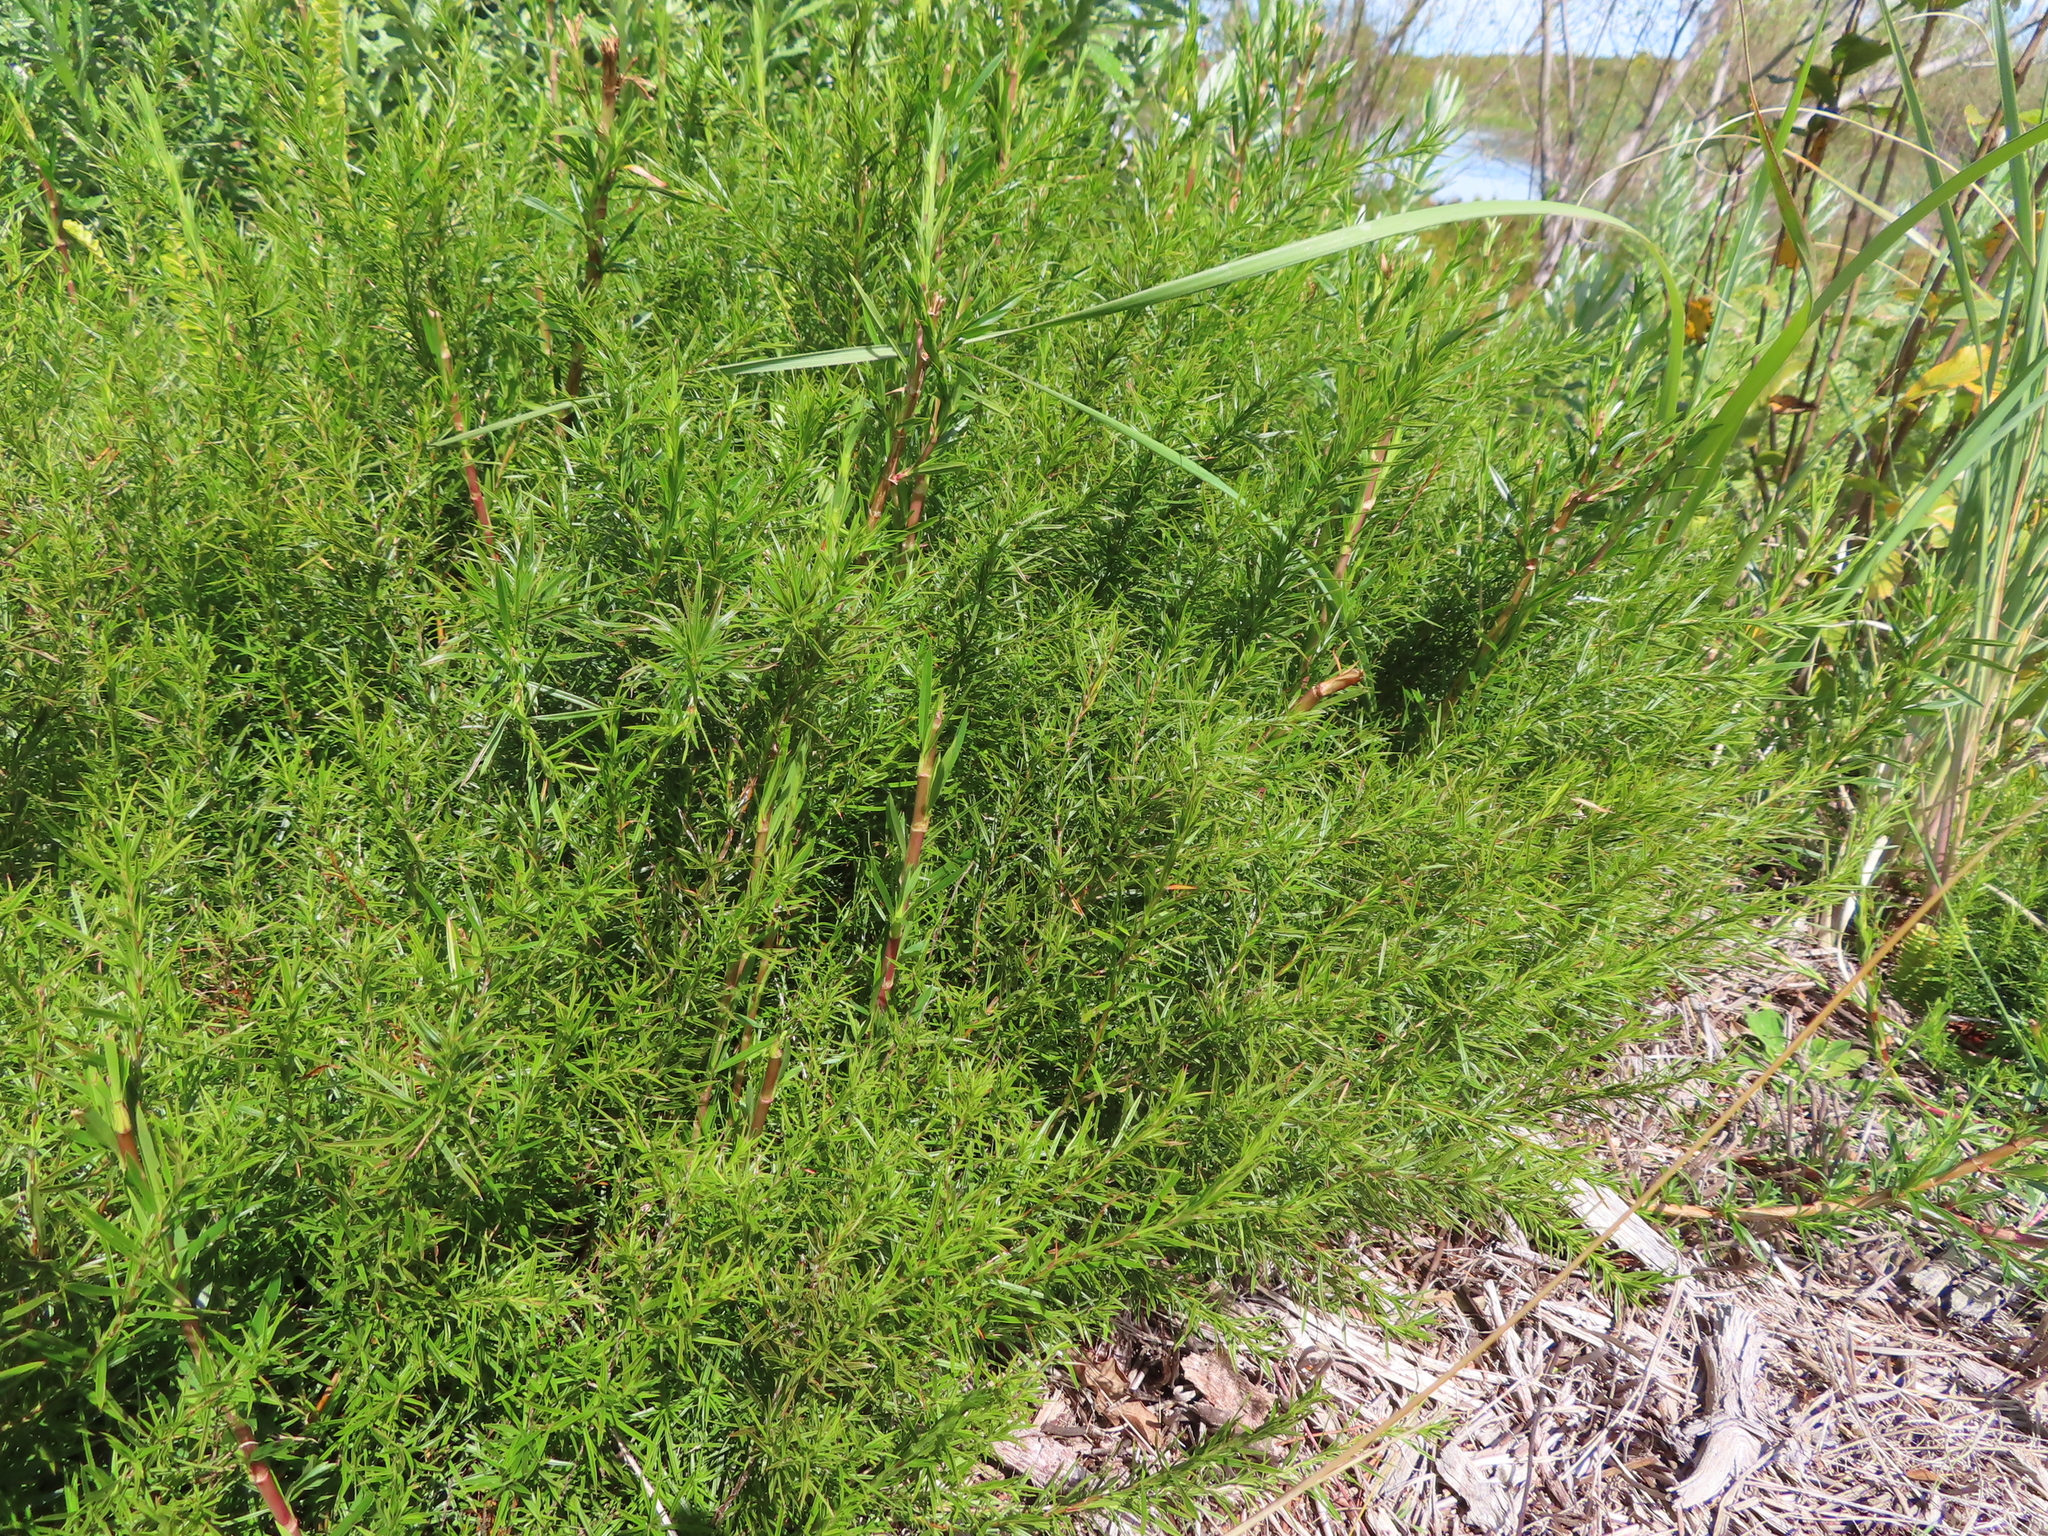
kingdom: Plantae
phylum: Tracheophyta
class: Magnoliopsida
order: Rosales
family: Rosaceae
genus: Cliffortia
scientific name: Cliffortia strobilifera
